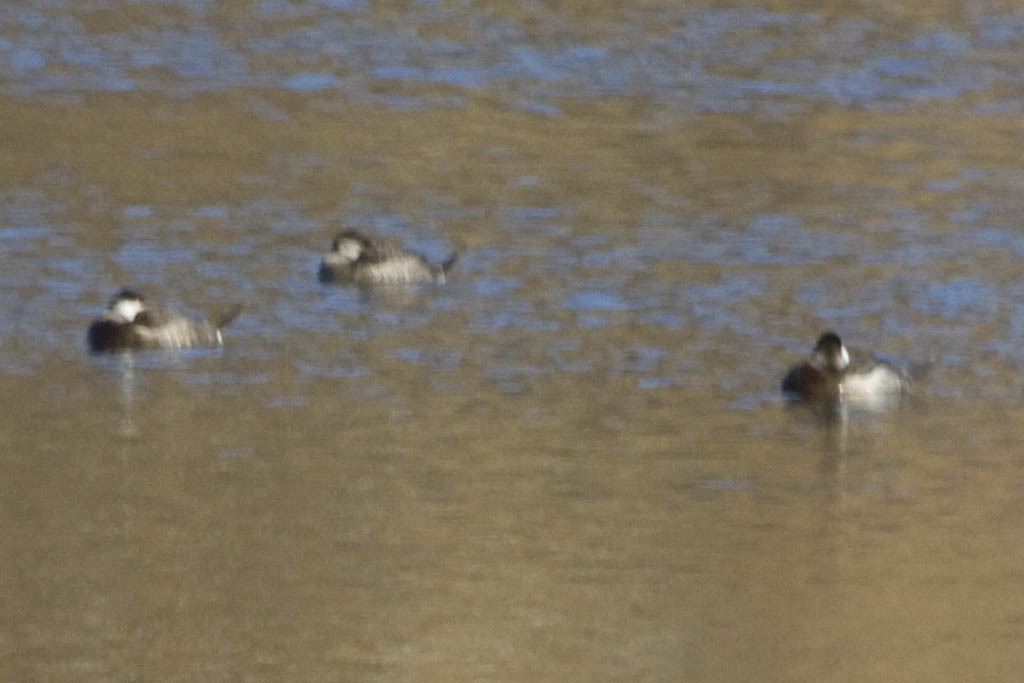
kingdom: Animalia
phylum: Chordata
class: Aves
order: Anseriformes
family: Anatidae
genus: Oxyura
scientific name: Oxyura jamaicensis
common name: Ruddy duck
